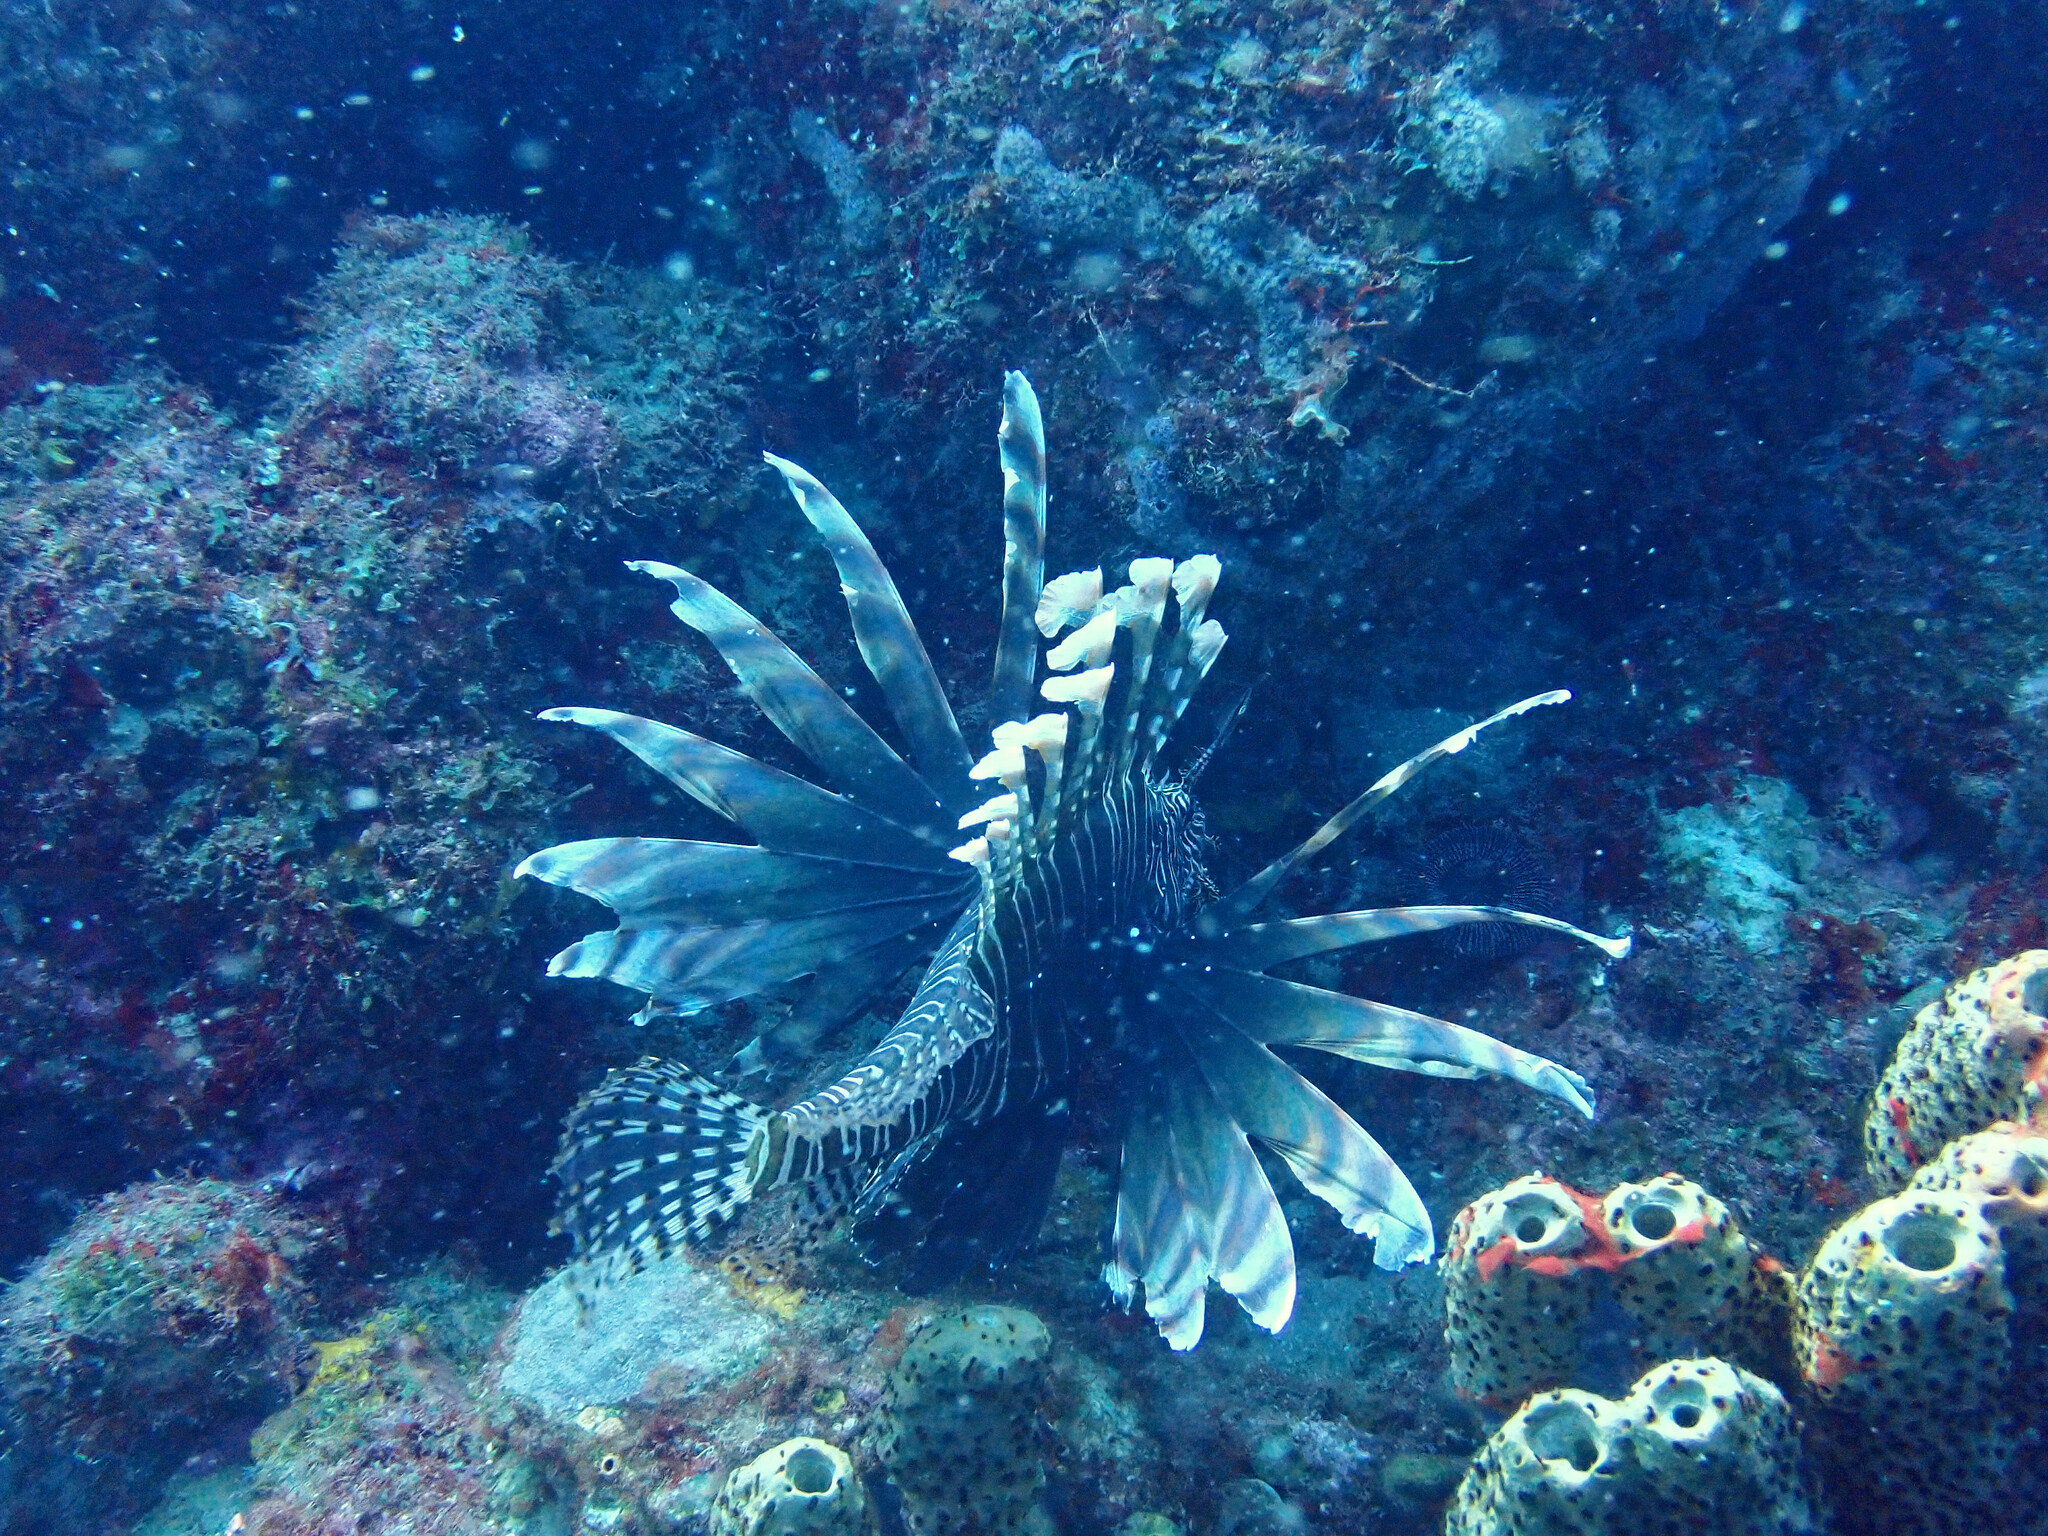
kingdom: Animalia
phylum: Chordata
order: Scorpaeniformes
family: Scorpaenidae
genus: Pterois
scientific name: Pterois volitans
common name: Lionfish
